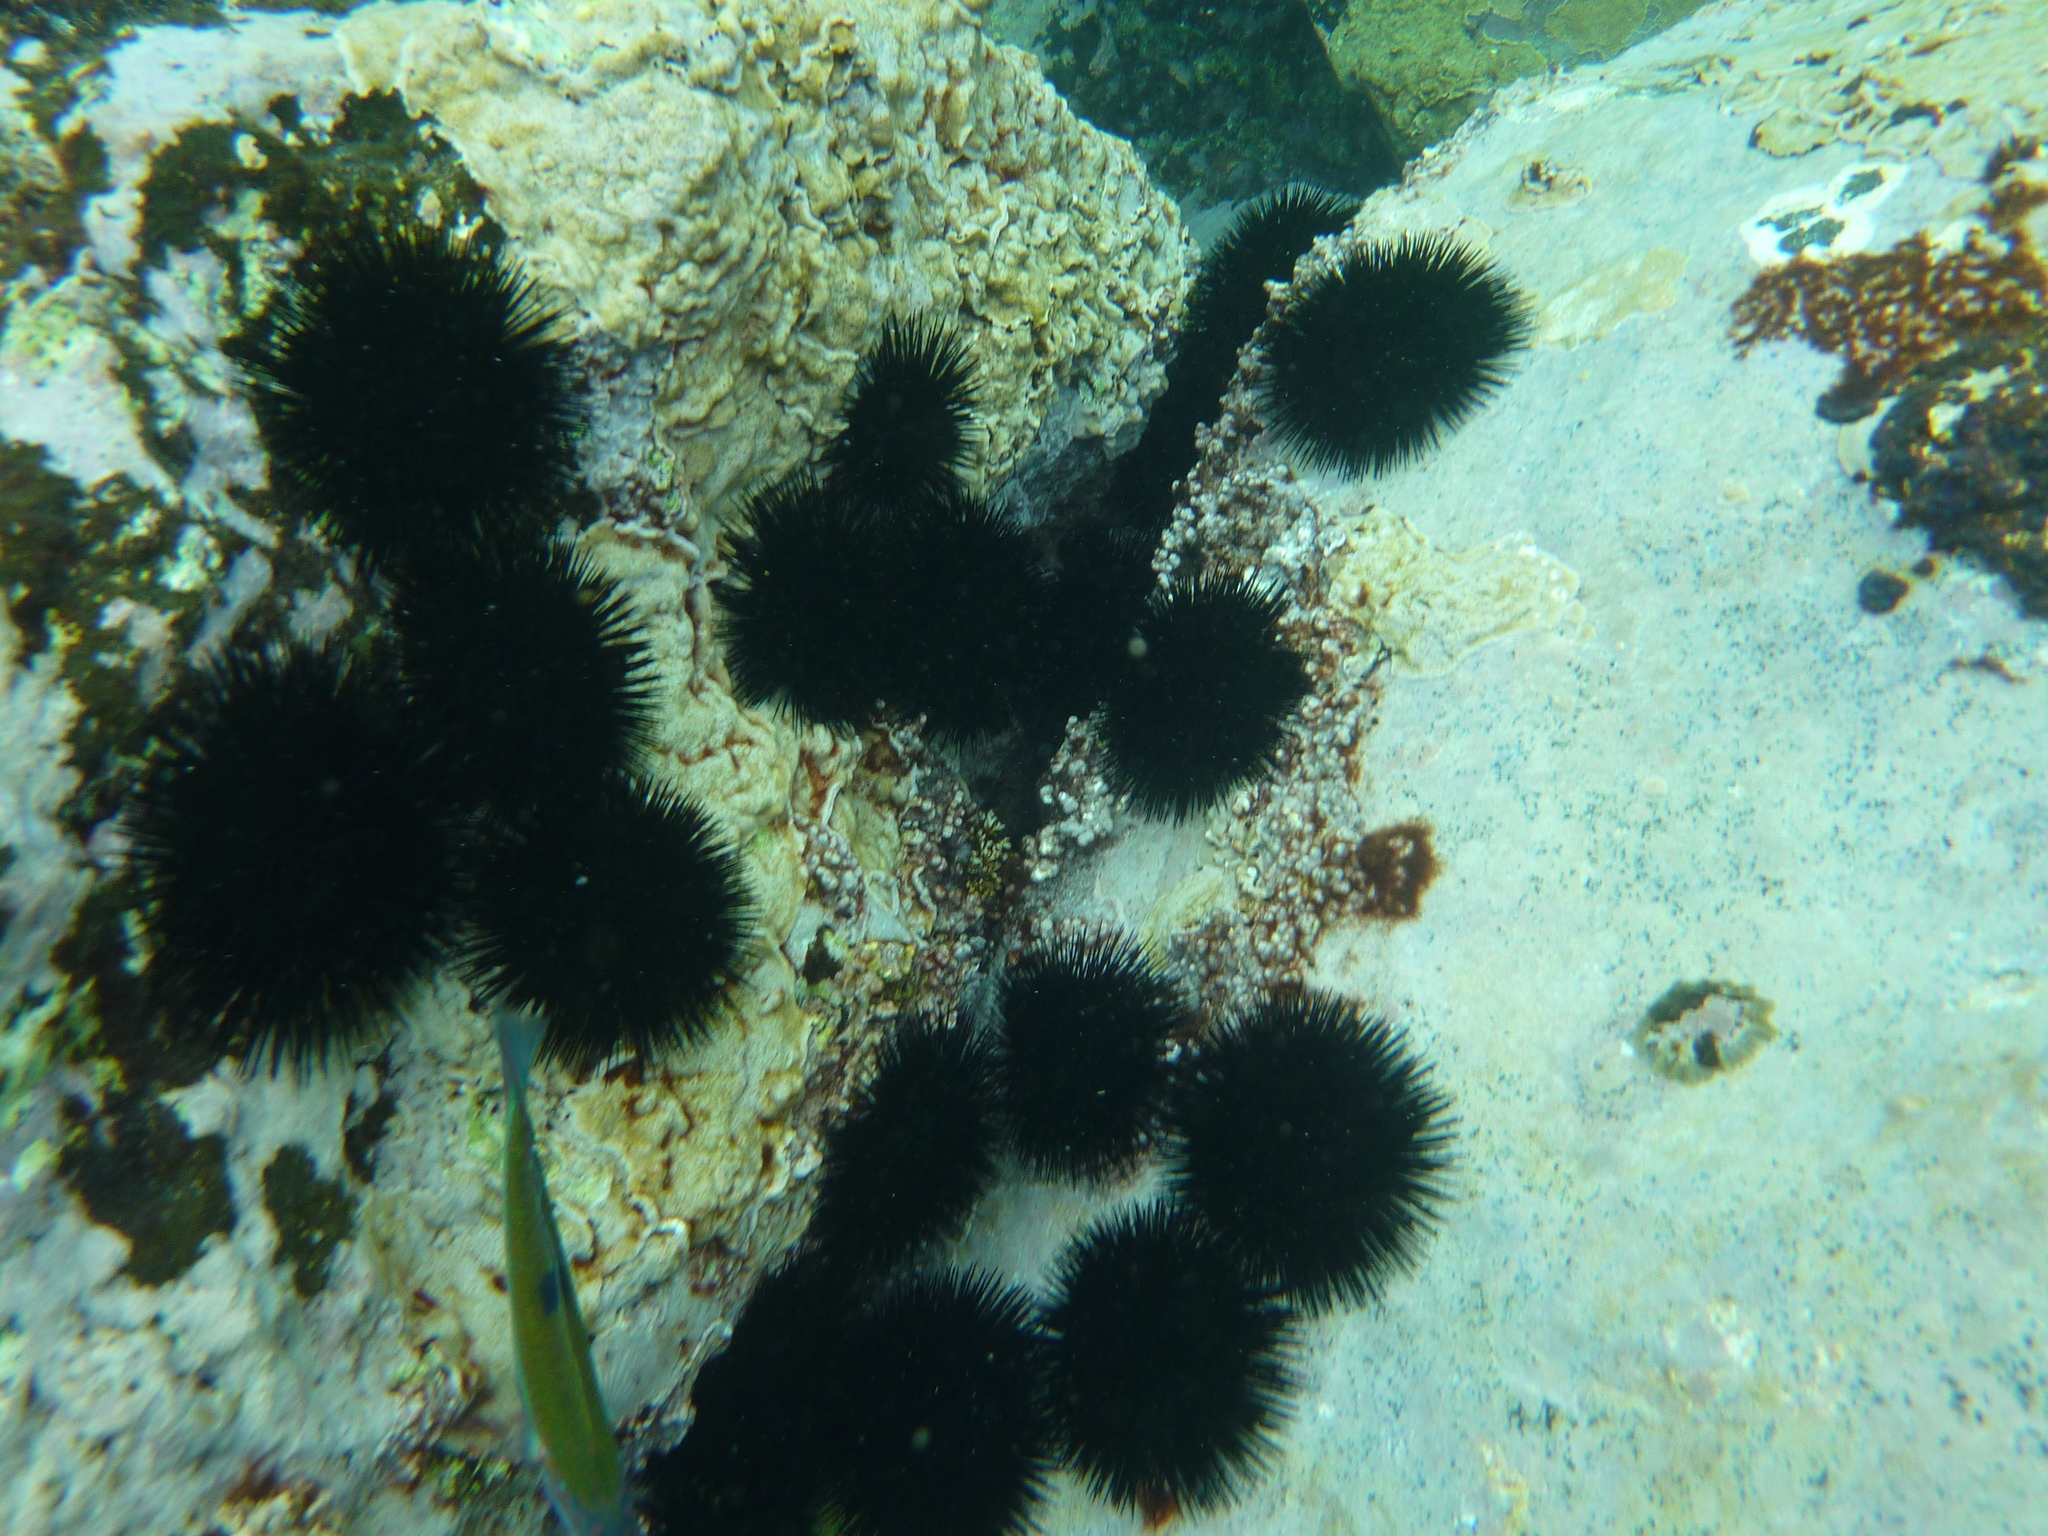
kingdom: Animalia
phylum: Echinodermata
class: Echinoidea
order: Arbacioida
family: Arbaciidae
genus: Arbacia
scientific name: Arbacia lixula
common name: Black sea urchin
